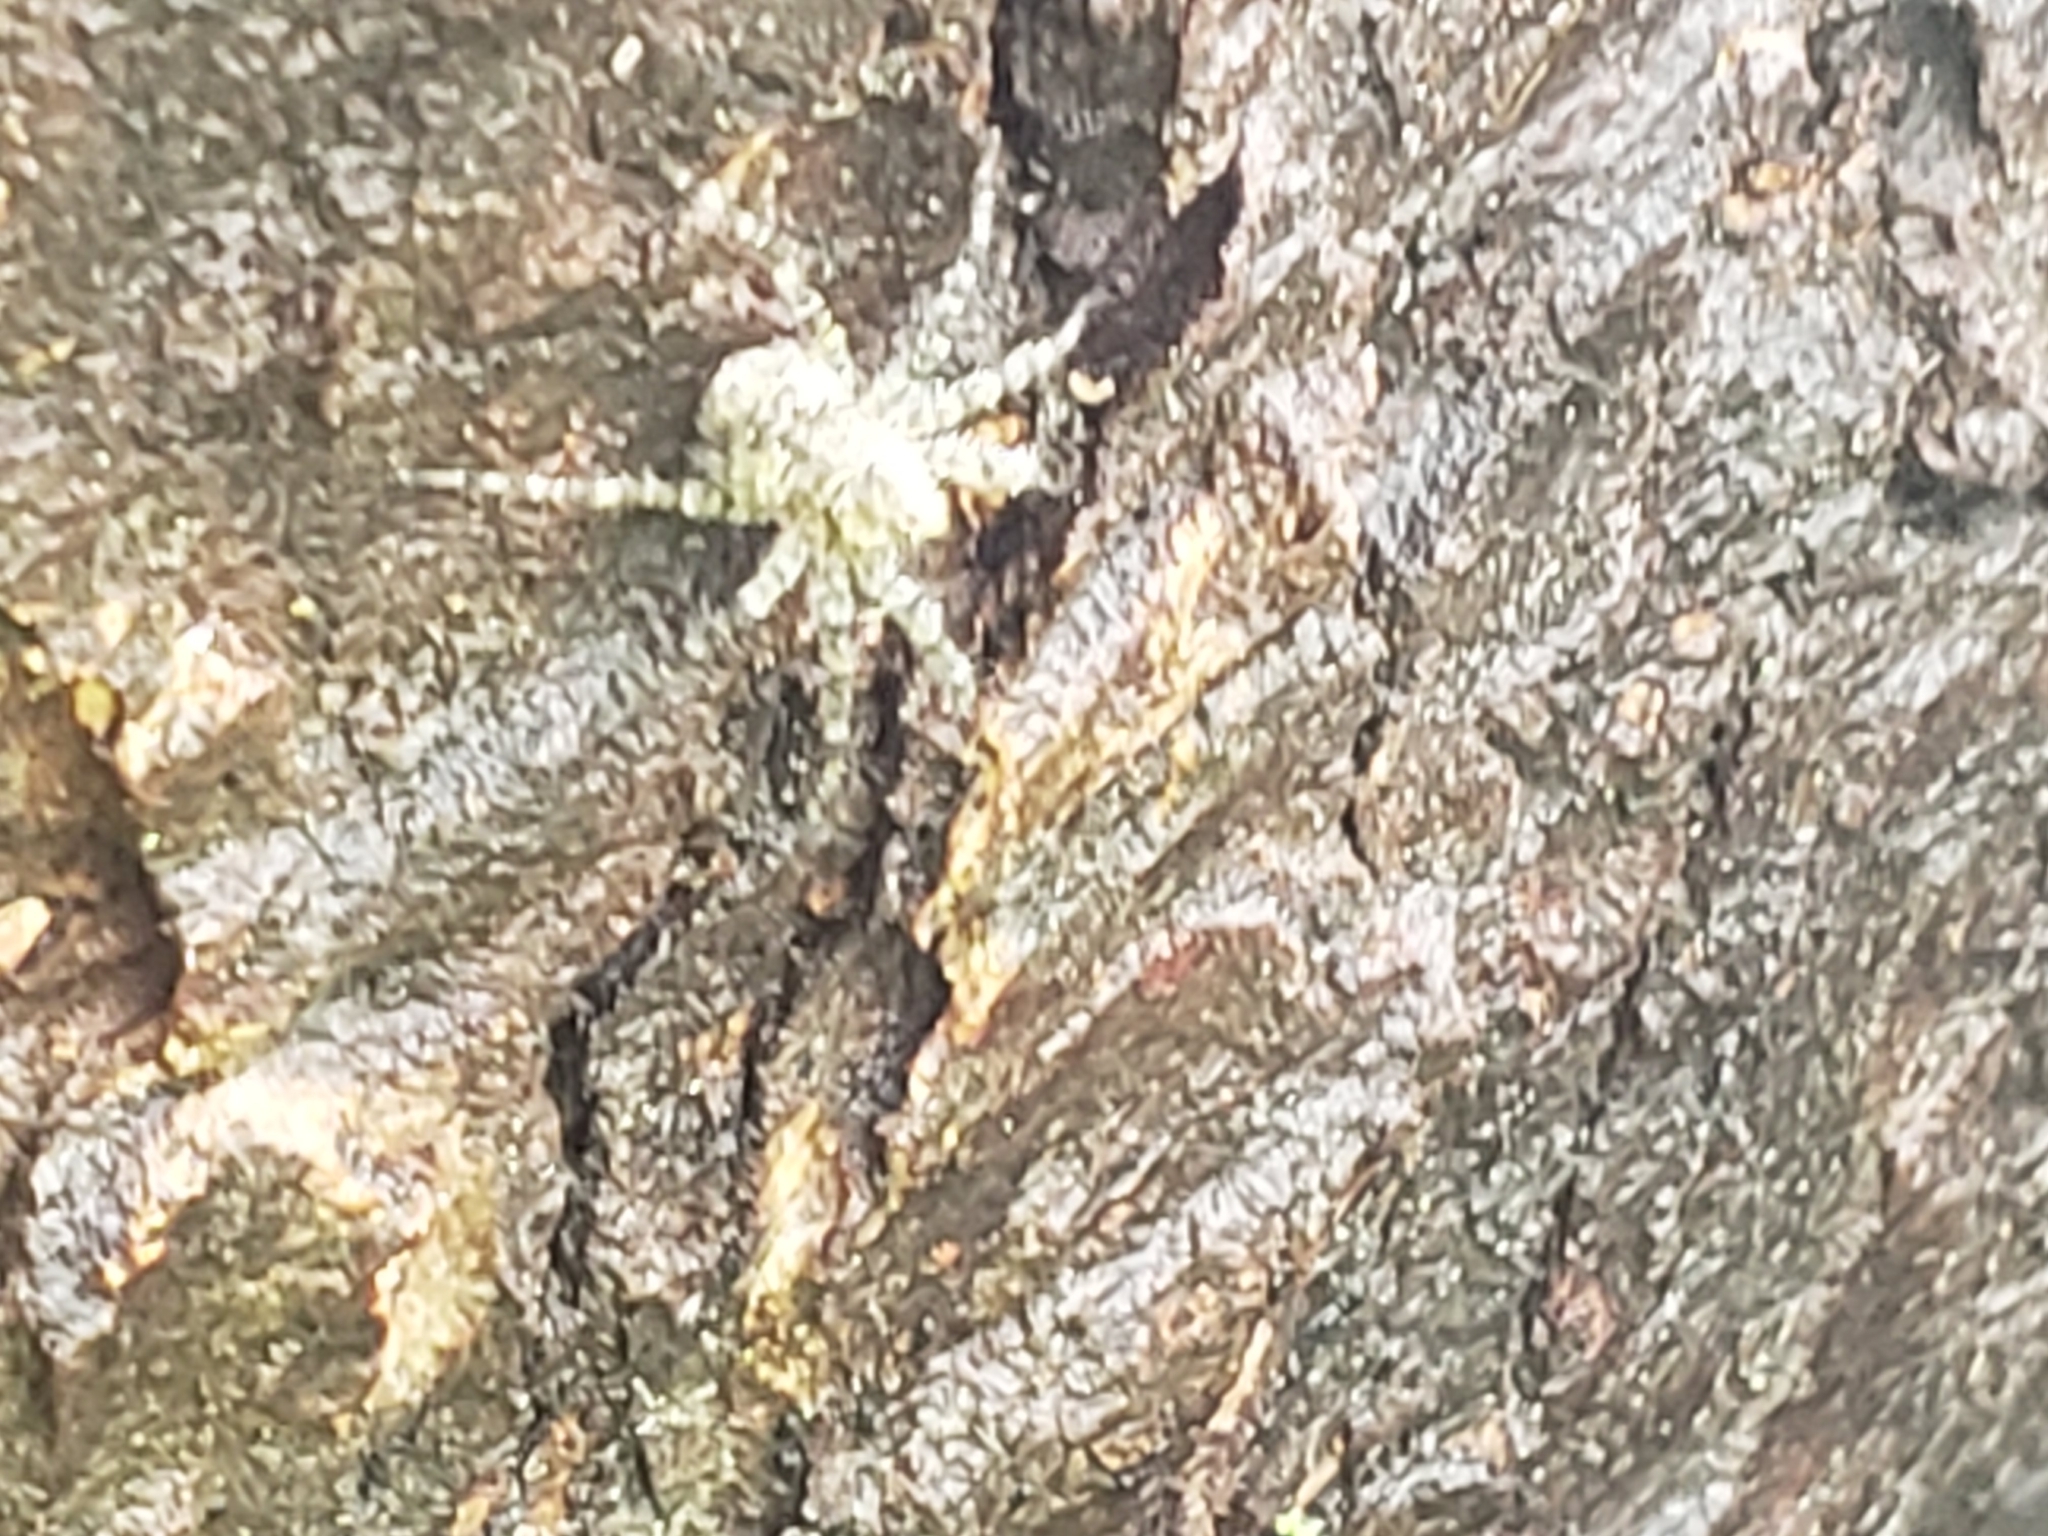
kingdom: Animalia
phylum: Arthropoda
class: Arachnida
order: Araneae
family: Pisauridae
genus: Dolomedes
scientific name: Dolomedes albineus
